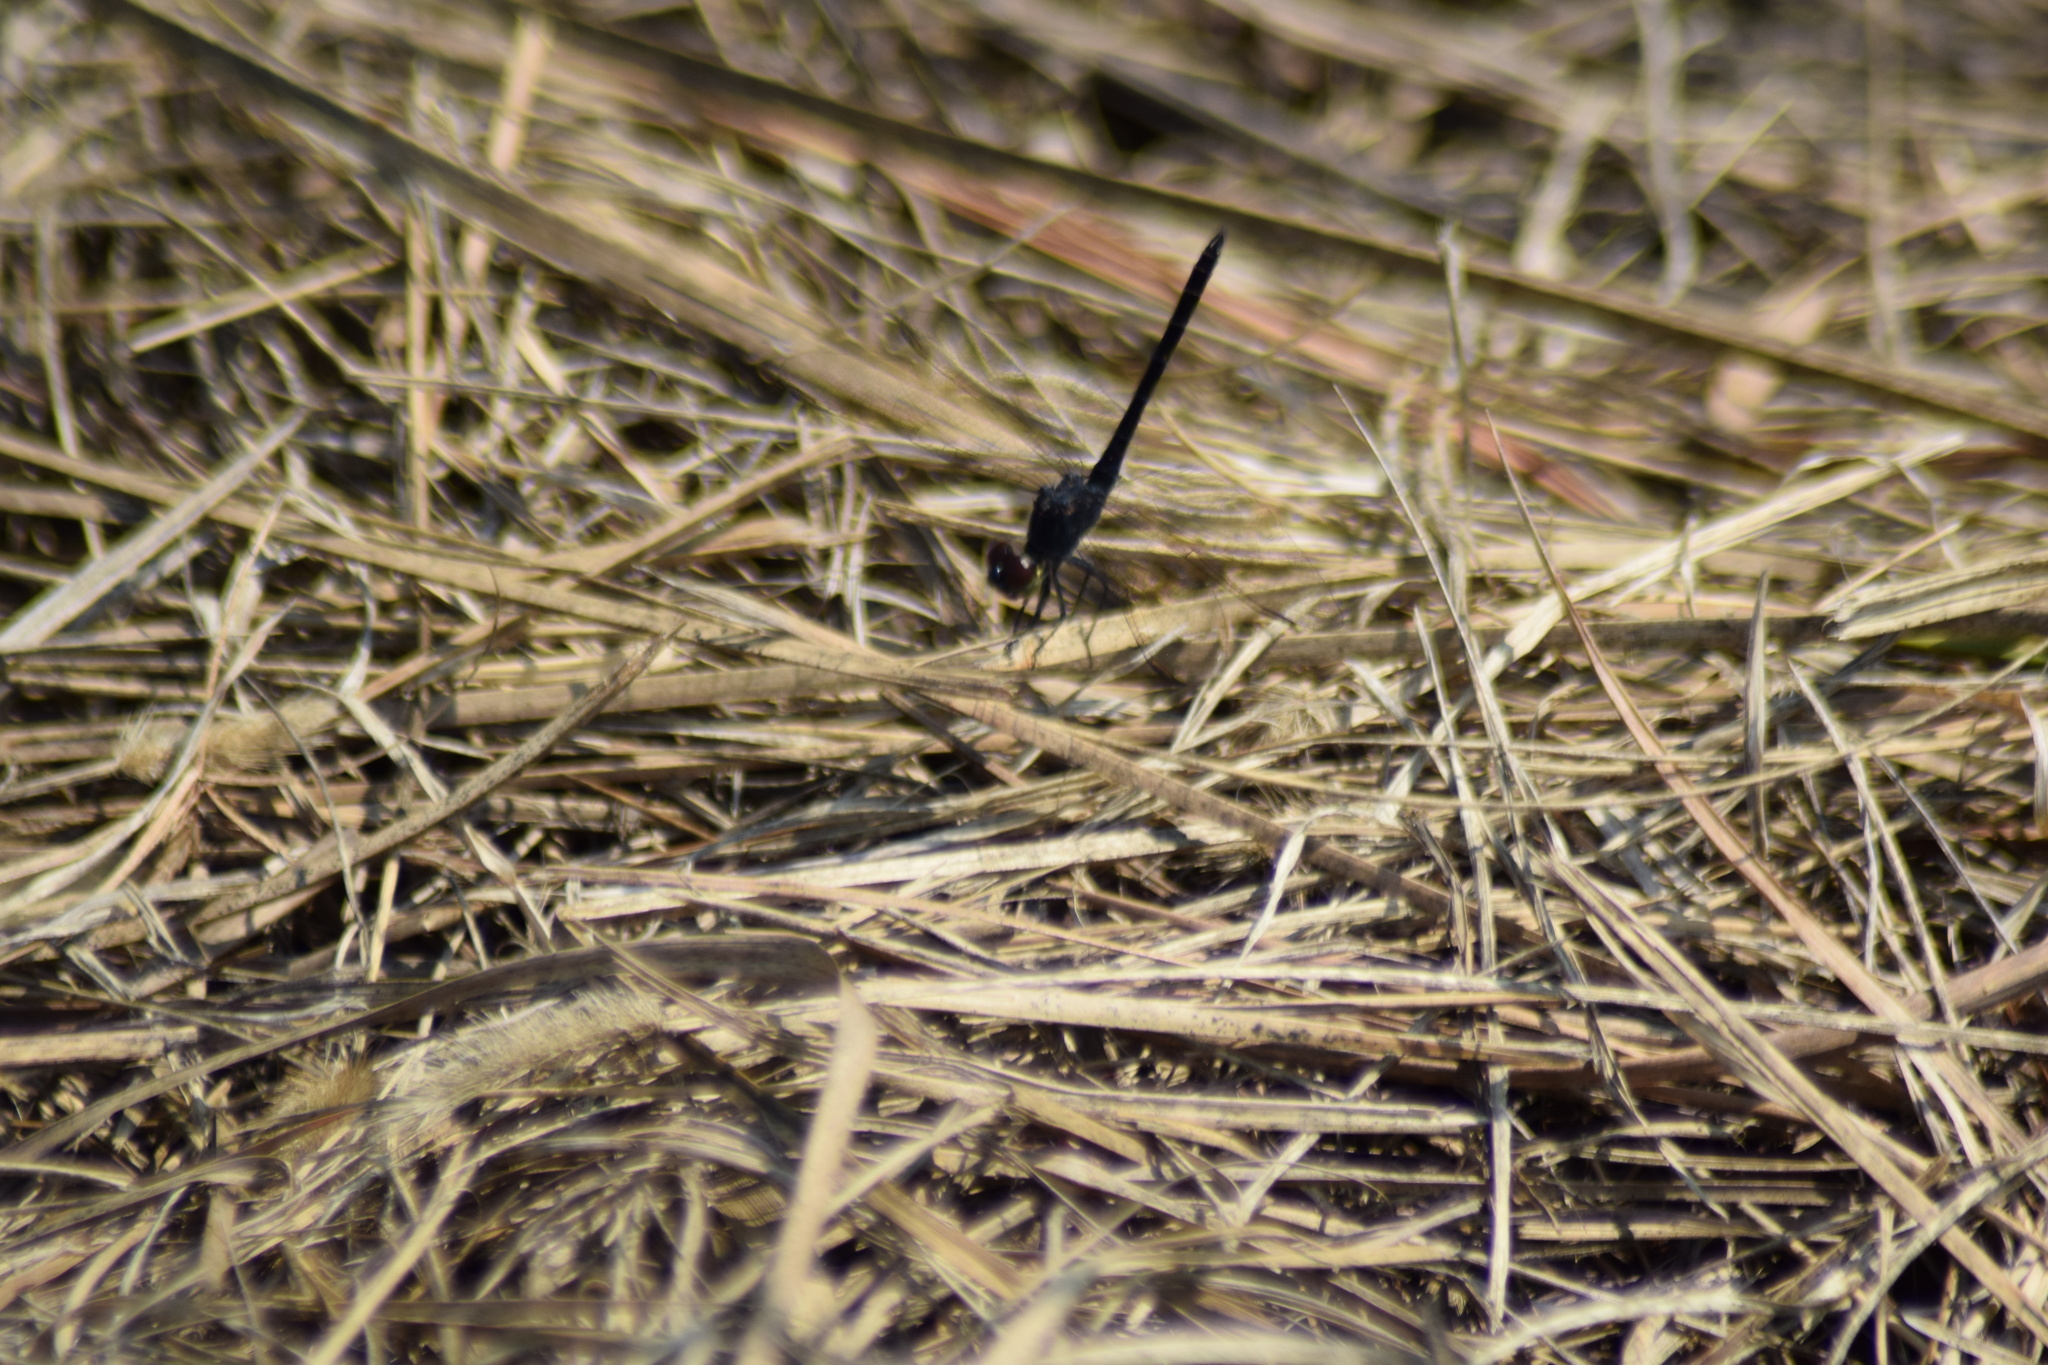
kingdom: Animalia
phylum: Arthropoda
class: Insecta
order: Odonata
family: Libellulidae
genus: Erythrodiplax
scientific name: Erythrodiplax berenice
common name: Seaside dragonlet
